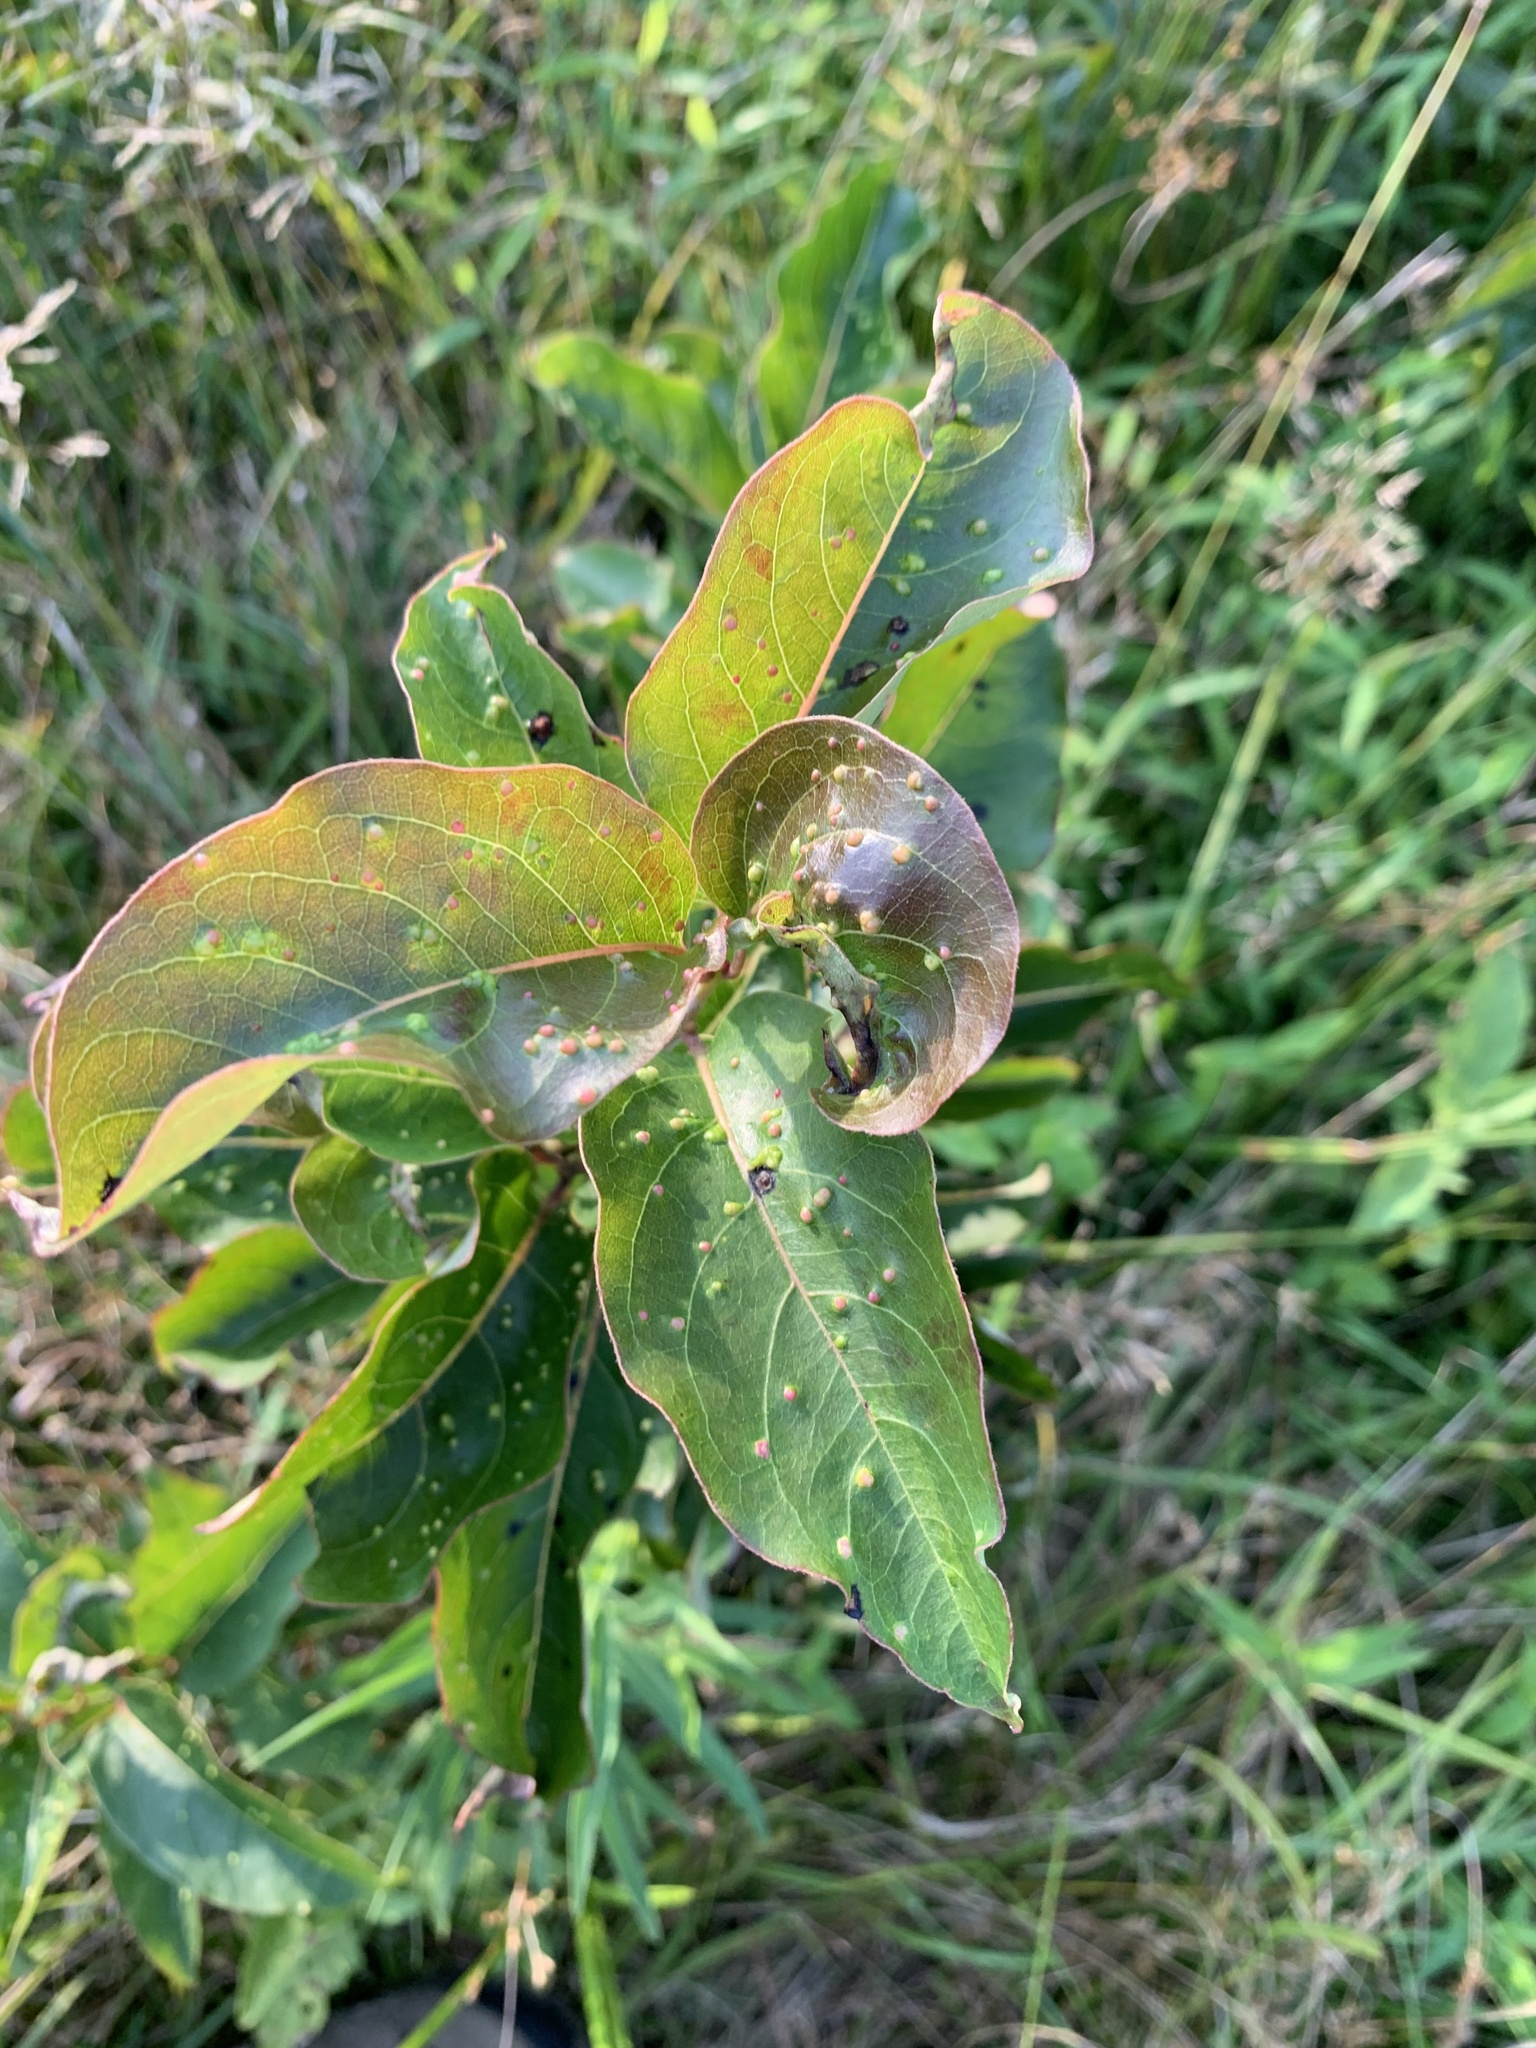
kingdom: Animalia
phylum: Arthropoda
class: Arachnida
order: Trombidiformes
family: Eriophyidae
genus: Aceria
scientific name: Aceria
